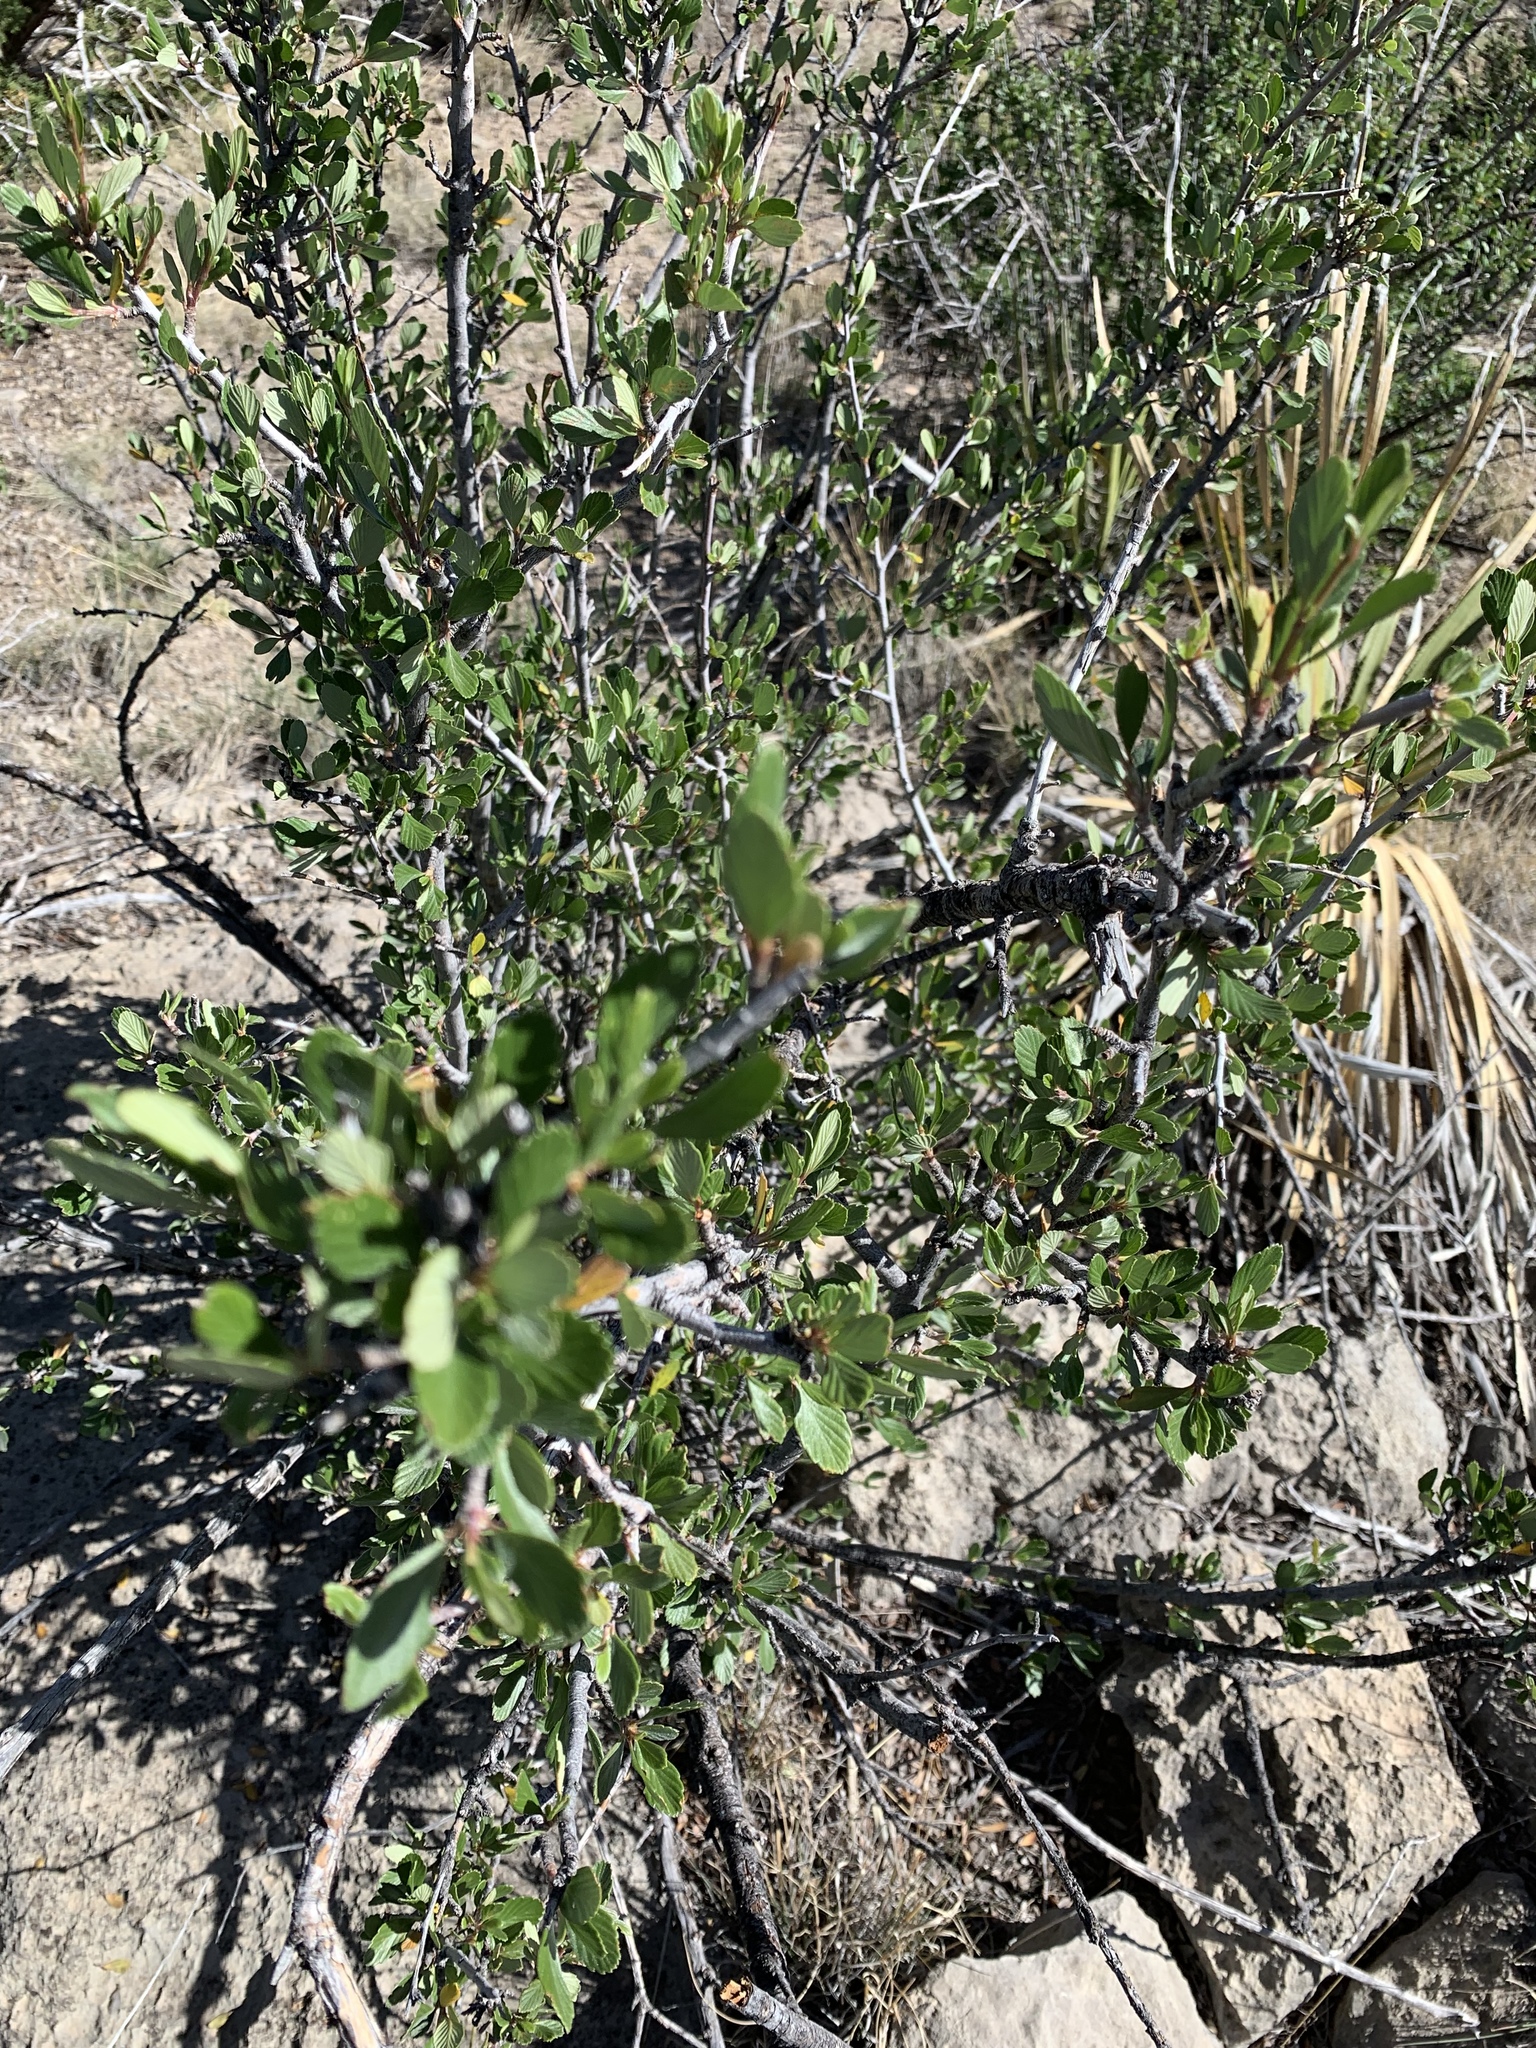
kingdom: Plantae
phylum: Tracheophyta
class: Magnoliopsida
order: Rosales
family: Rosaceae
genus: Cercocarpus
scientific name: Cercocarpus breviflorus
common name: Wright's mountain-mahogany
